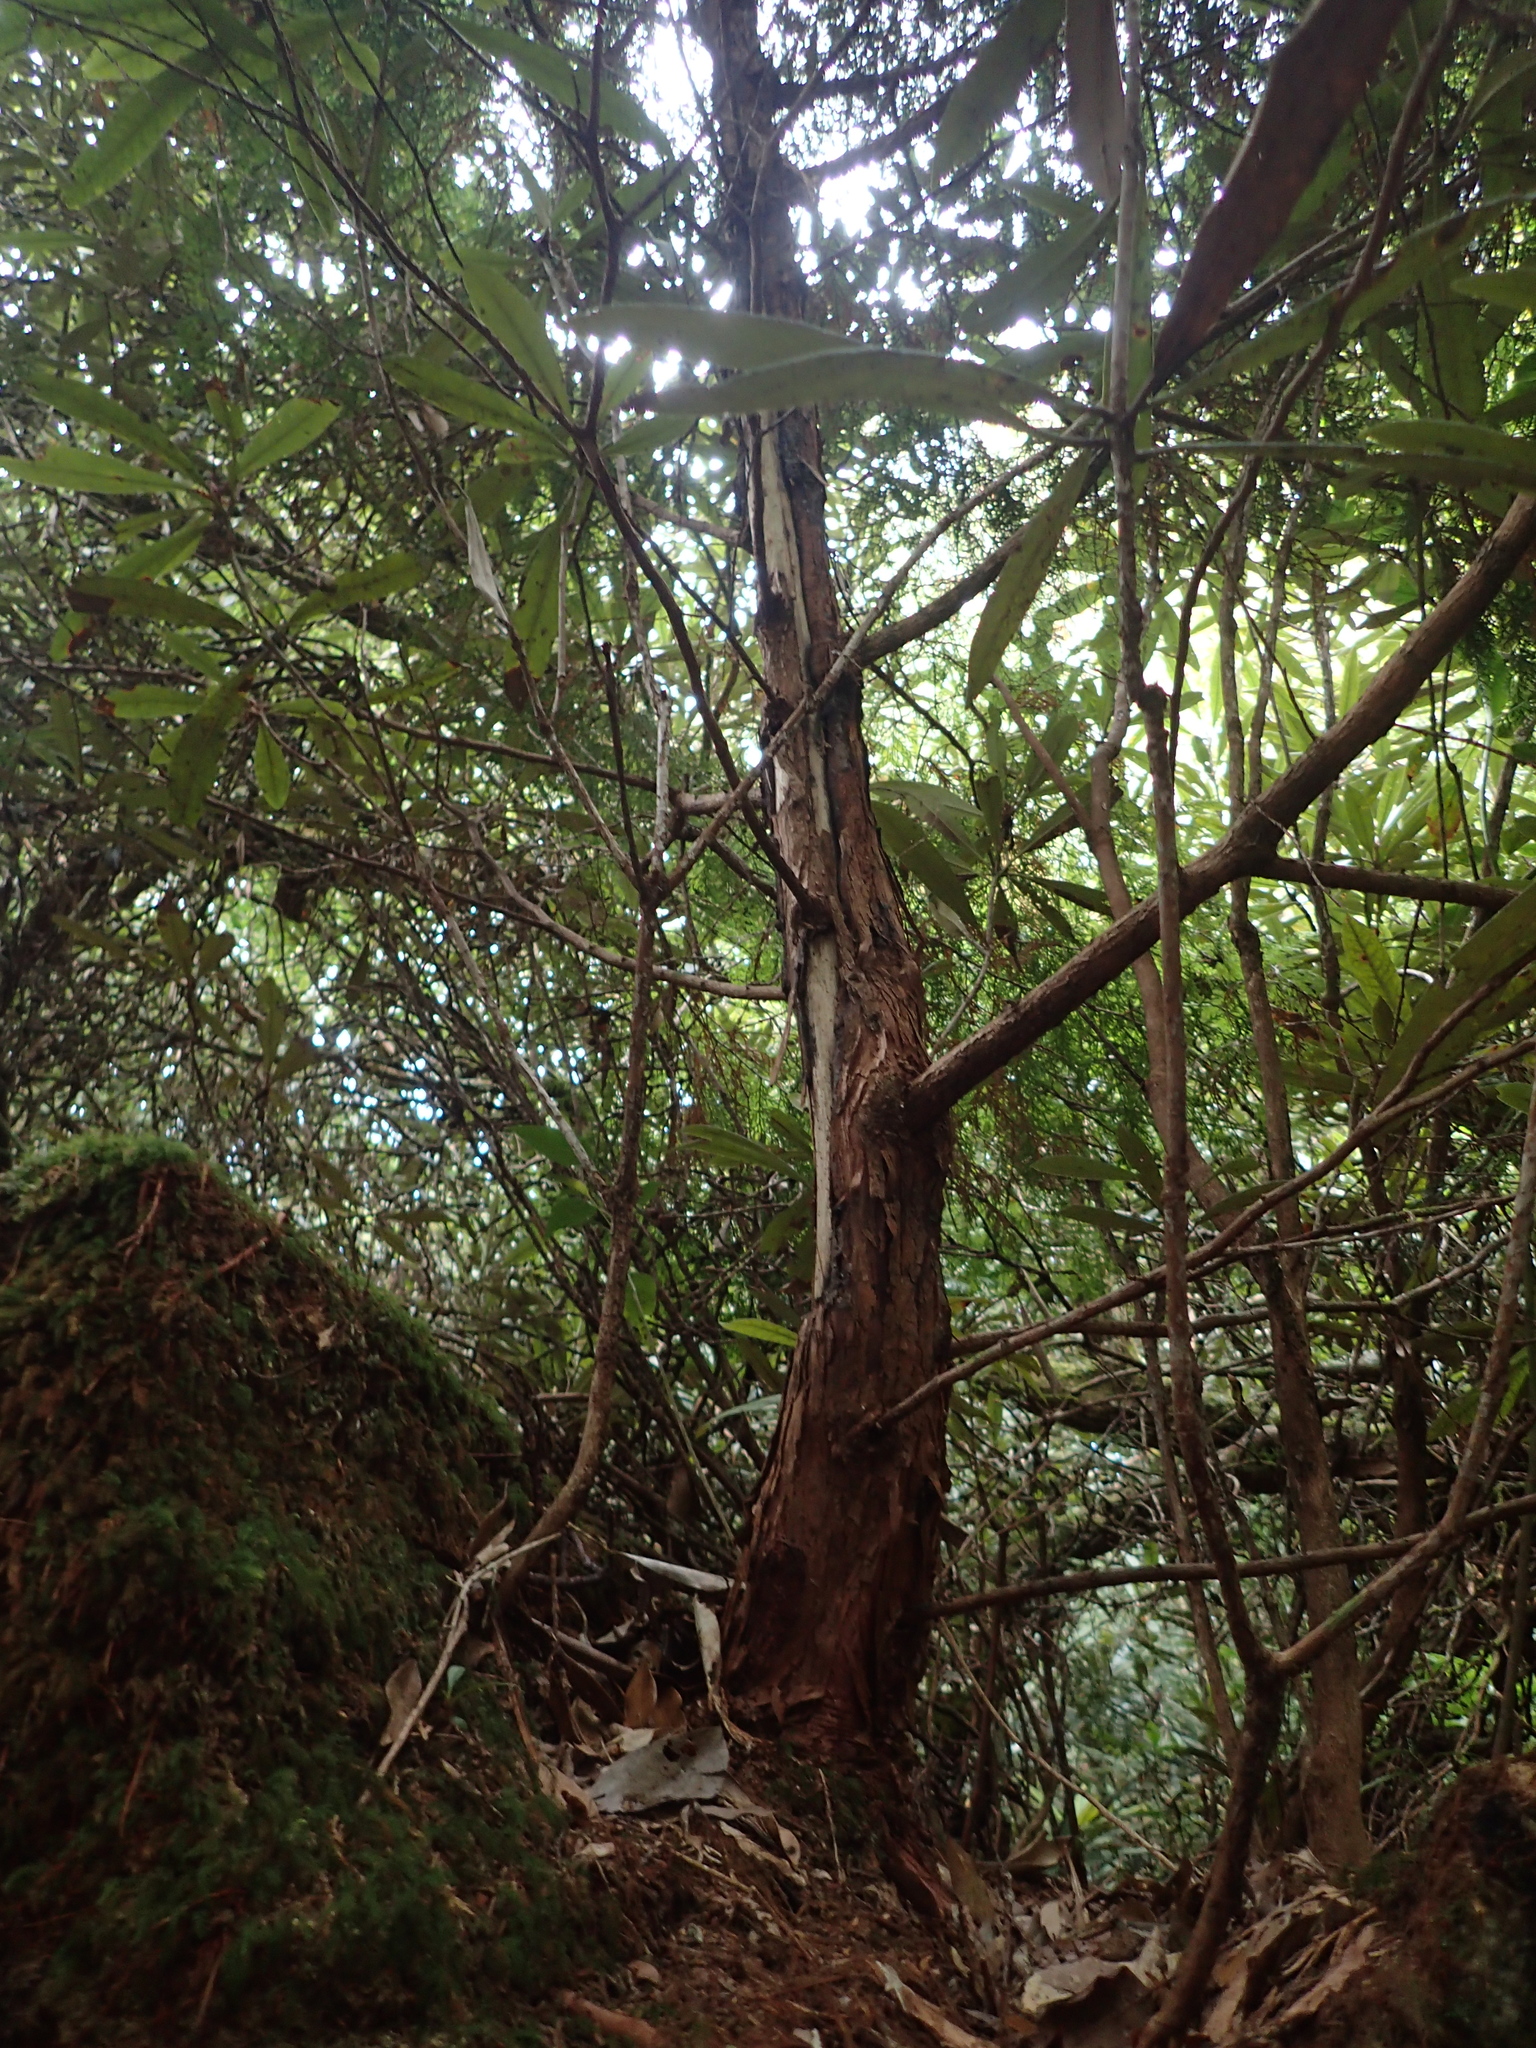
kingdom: Plantae
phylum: Tracheophyta
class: Pinopsida
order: Pinales
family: Cupressaceae
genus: Chamaecyparis
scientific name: Chamaecyparis obtusa
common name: Hinoki false cypress
